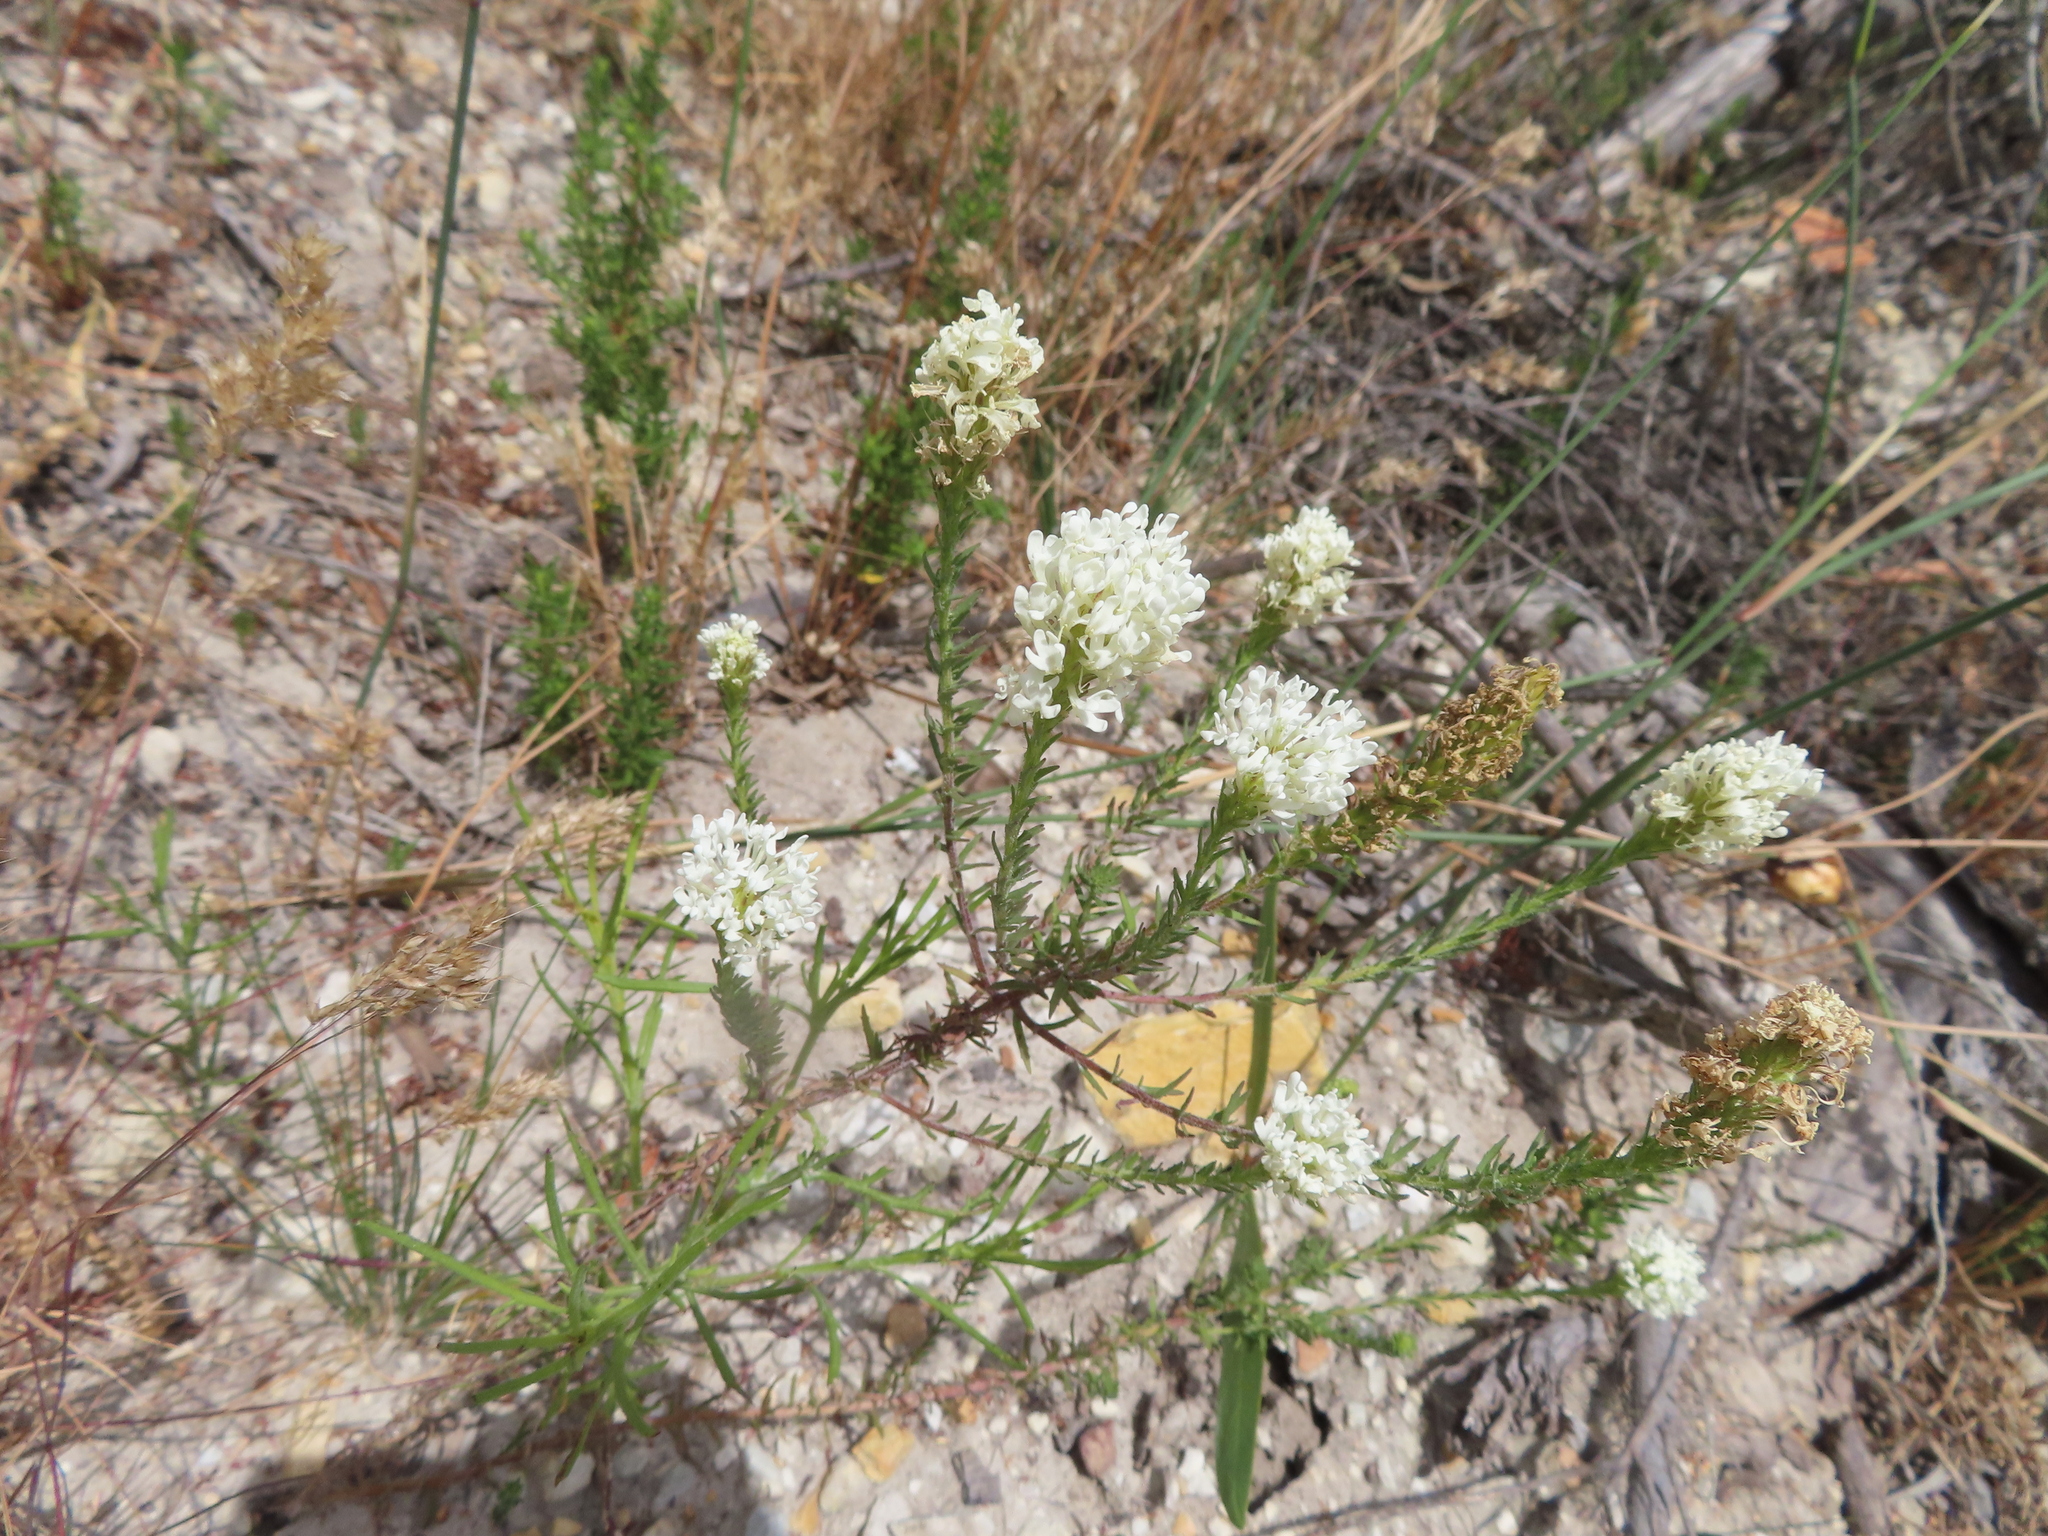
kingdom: Plantae
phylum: Tracheophyta
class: Magnoliopsida
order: Lamiales
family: Scrophulariaceae
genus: Dischisma
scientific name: Dischisma ciliatum
